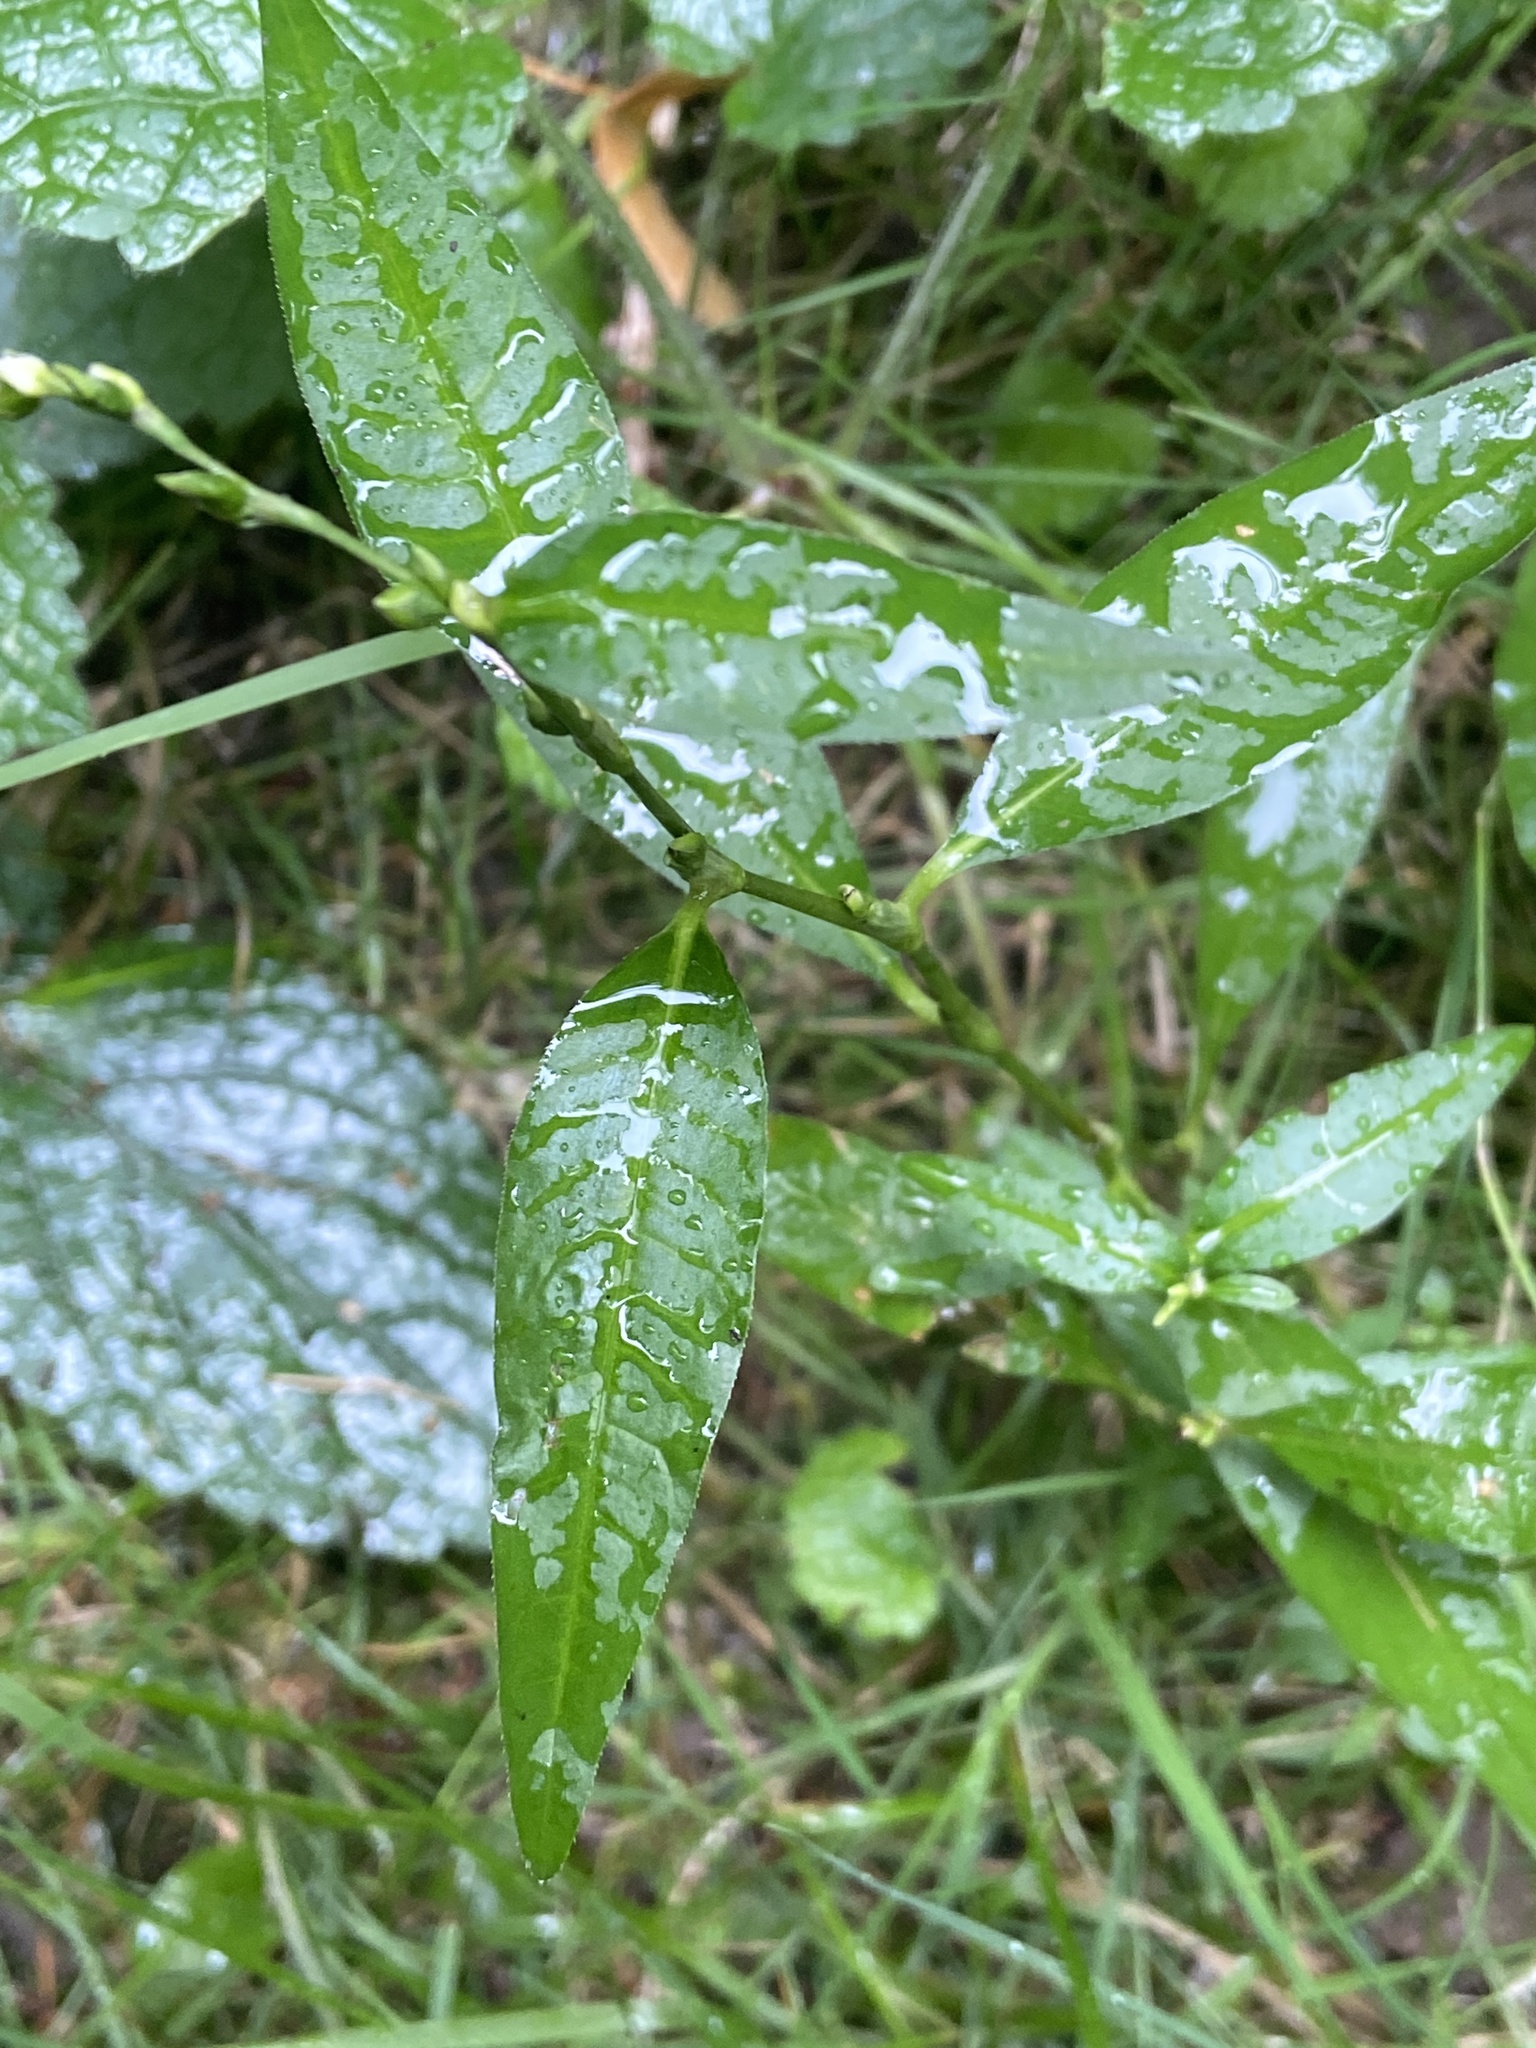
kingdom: Plantae
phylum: Tracheophyta
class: Magnoliopsida
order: Caryophyllales
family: Polygonaceae
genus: Persicaria
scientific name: Persicaria hydropiper
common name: Water-pepper
